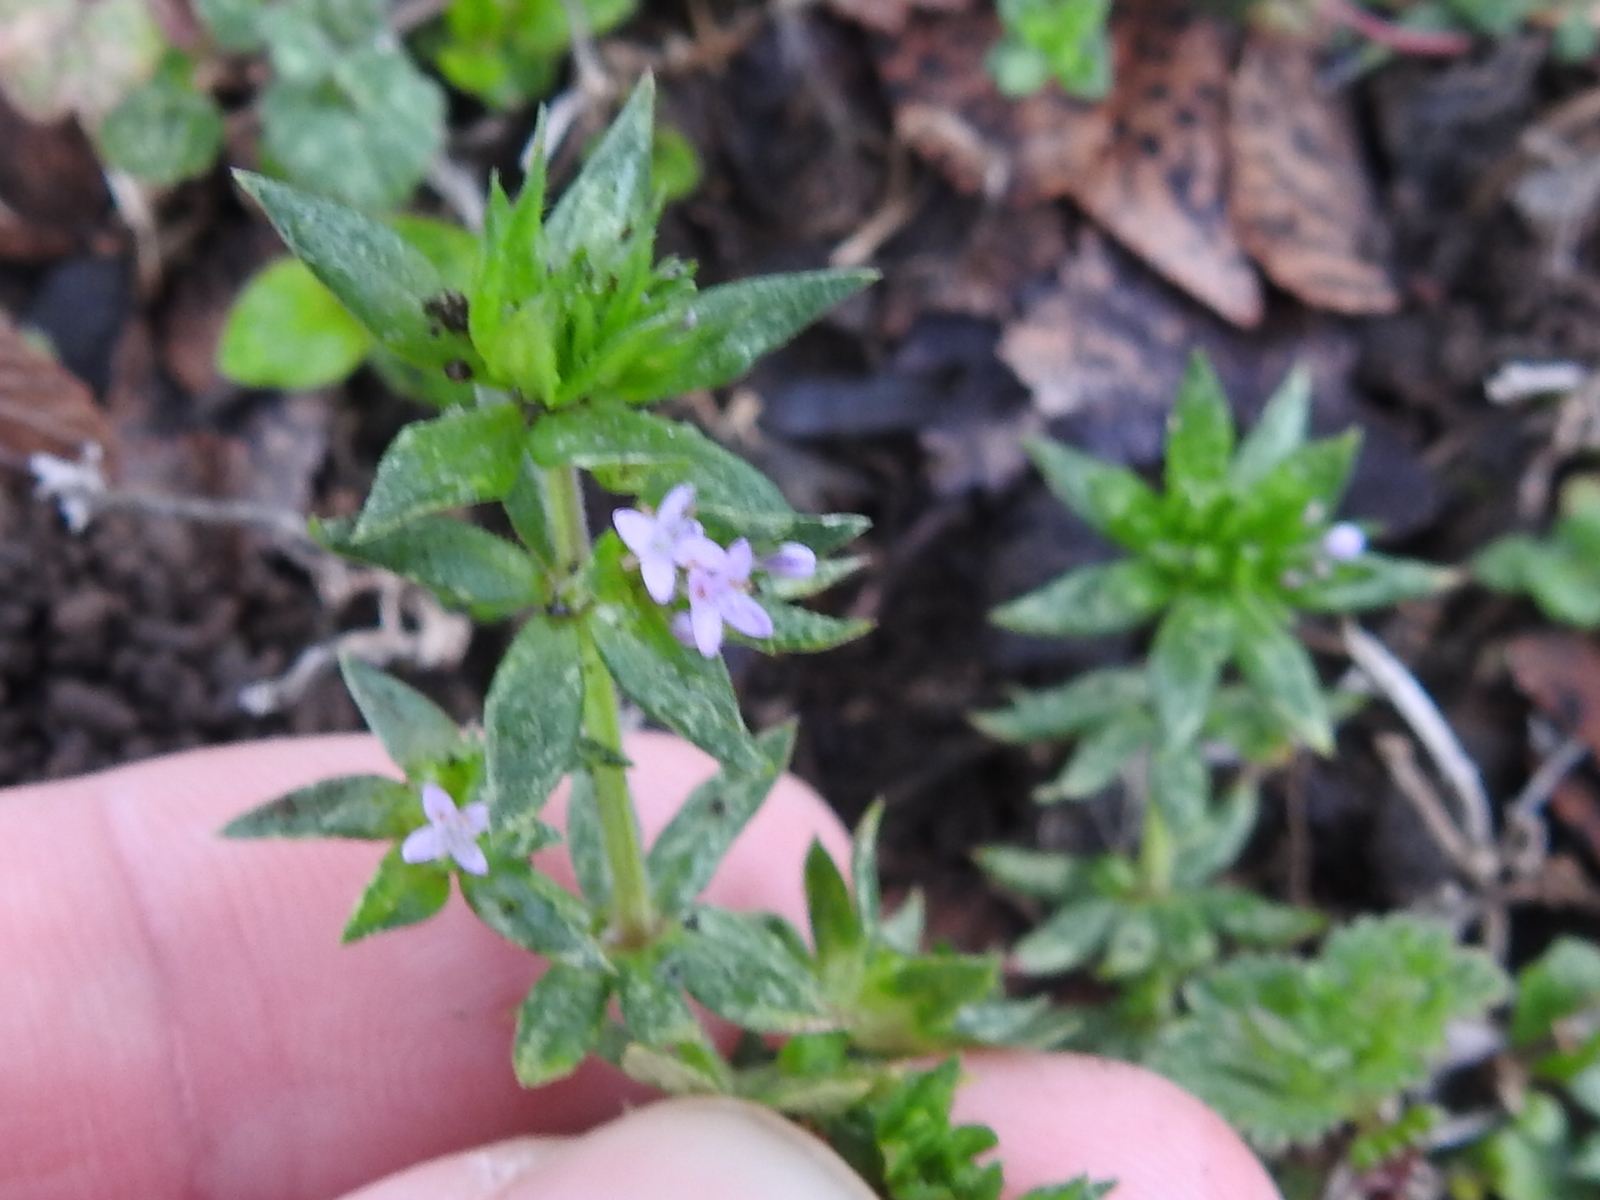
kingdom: Plantae
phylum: Tracheophyta
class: Magnoliopsida
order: Gentianales
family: Rubiaceae
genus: Sherardia
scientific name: Sherardia arvensis
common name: Field madder
